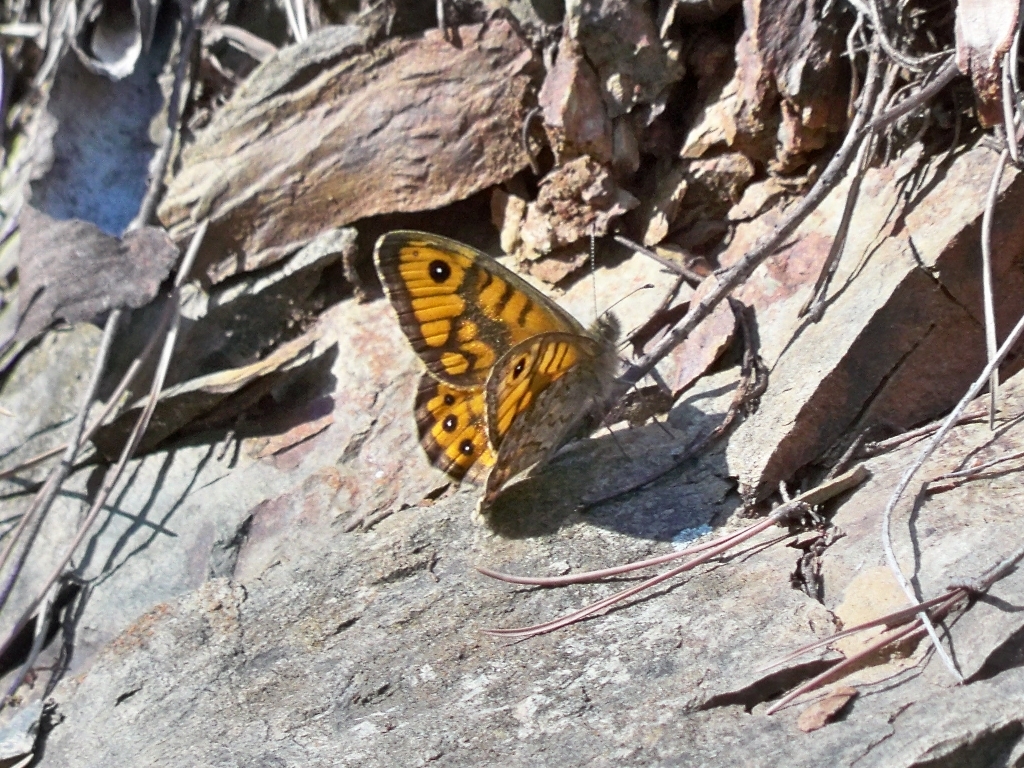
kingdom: Animalia
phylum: Arthropoda
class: Insecta
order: Lepidoptera
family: Nymphalidae
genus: Pararge
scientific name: Pararge Lasiommata megera
